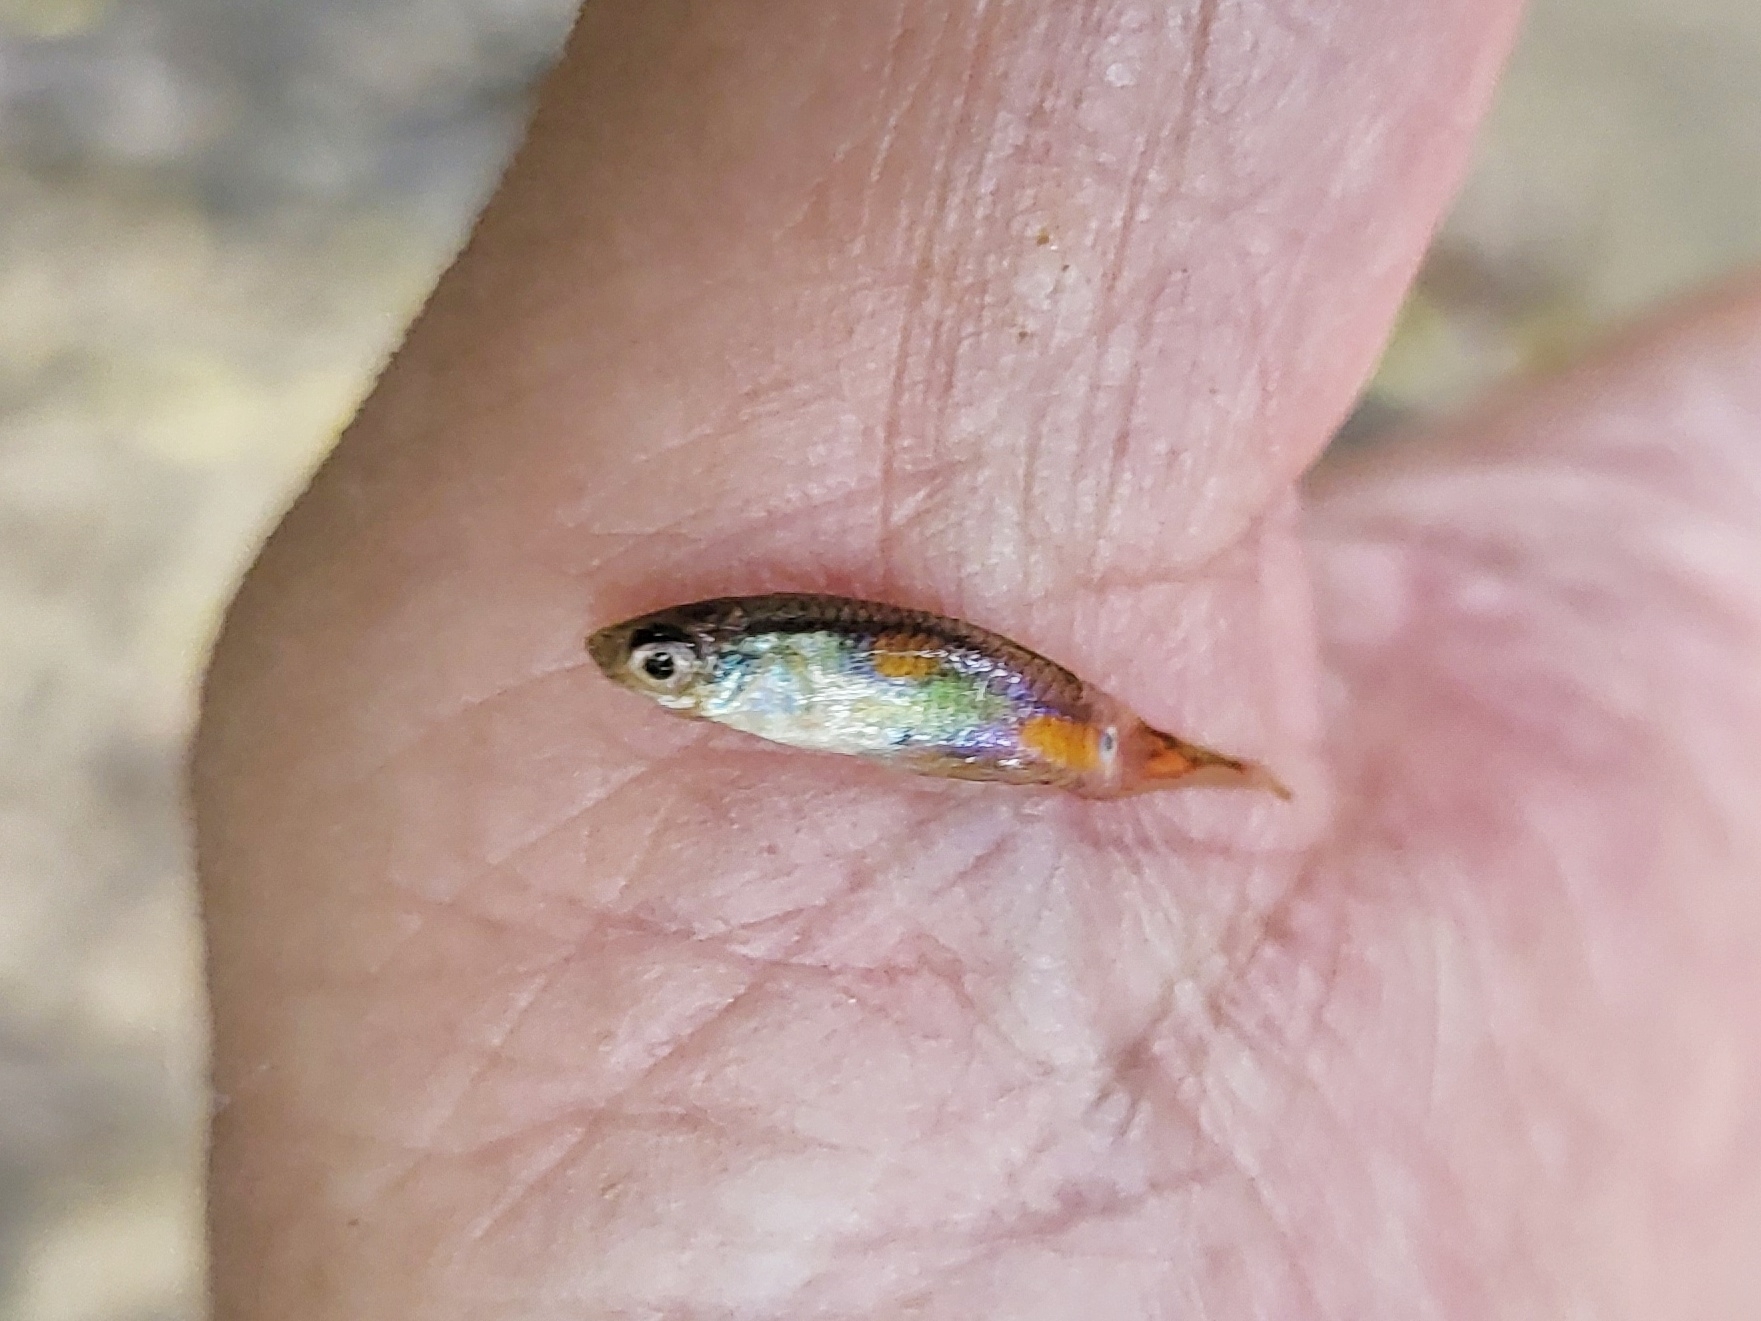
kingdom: Animalia
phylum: Chordata
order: Cyprinodontiformes
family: Poeciliidae
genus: Poecilia
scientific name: Poecilia reticulata
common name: Guppy
